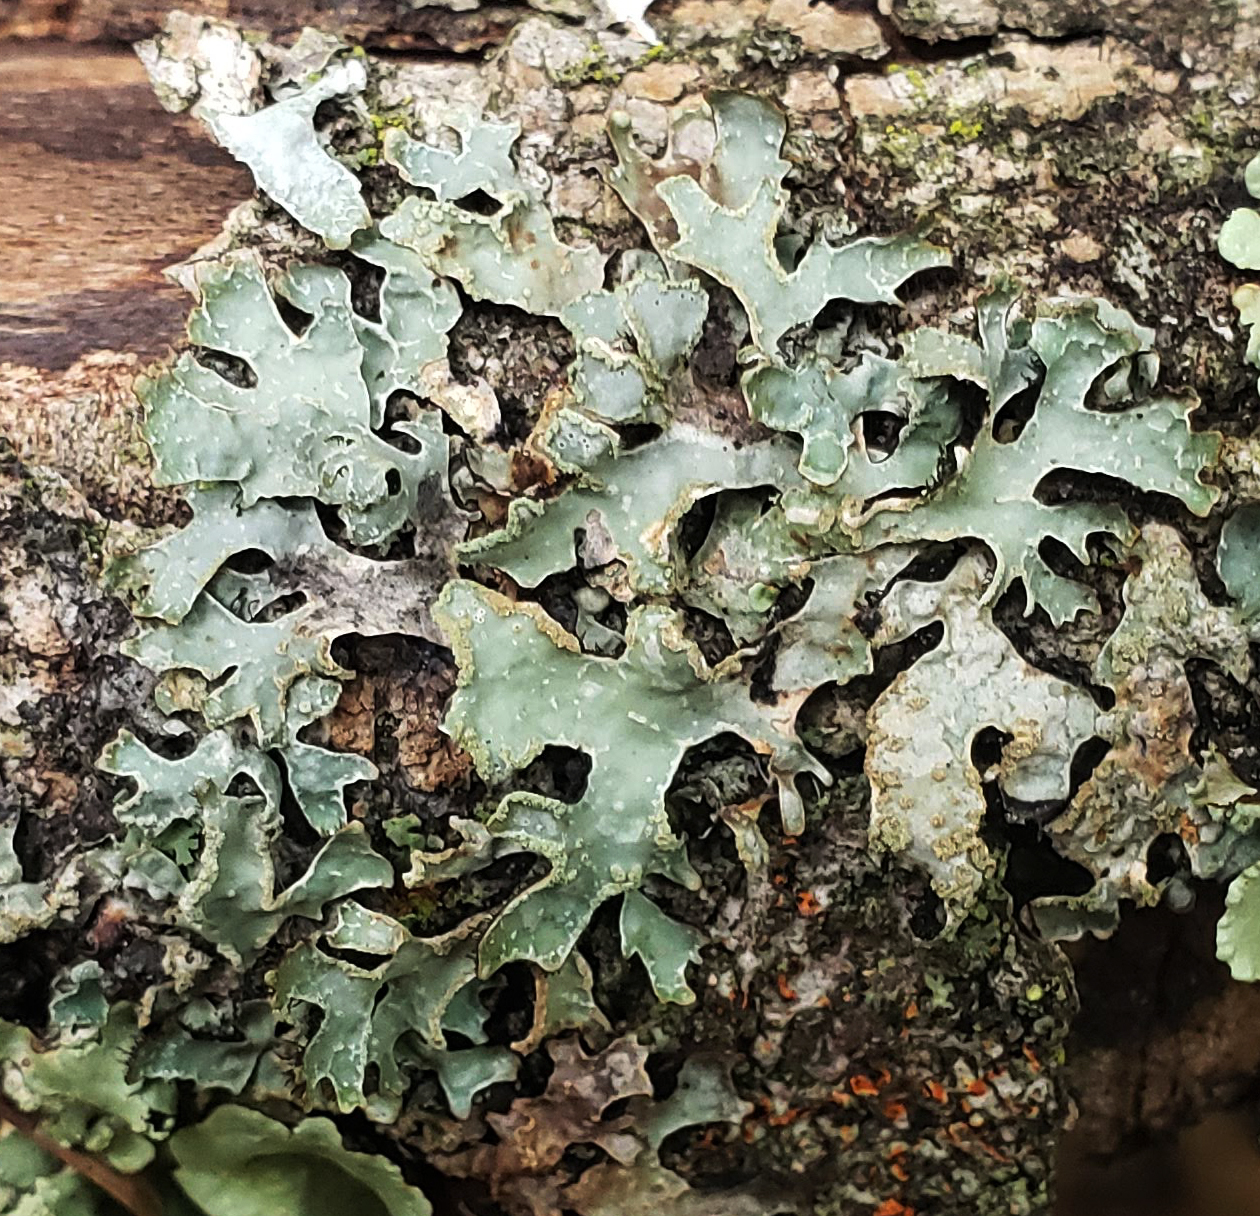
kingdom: Fungi
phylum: Ascomycota
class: Lecanoromycetes
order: Lecanorales
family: Parmeliaceae
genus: Parmelia
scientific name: Parmelia sulcata
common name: Netted shield lichen
